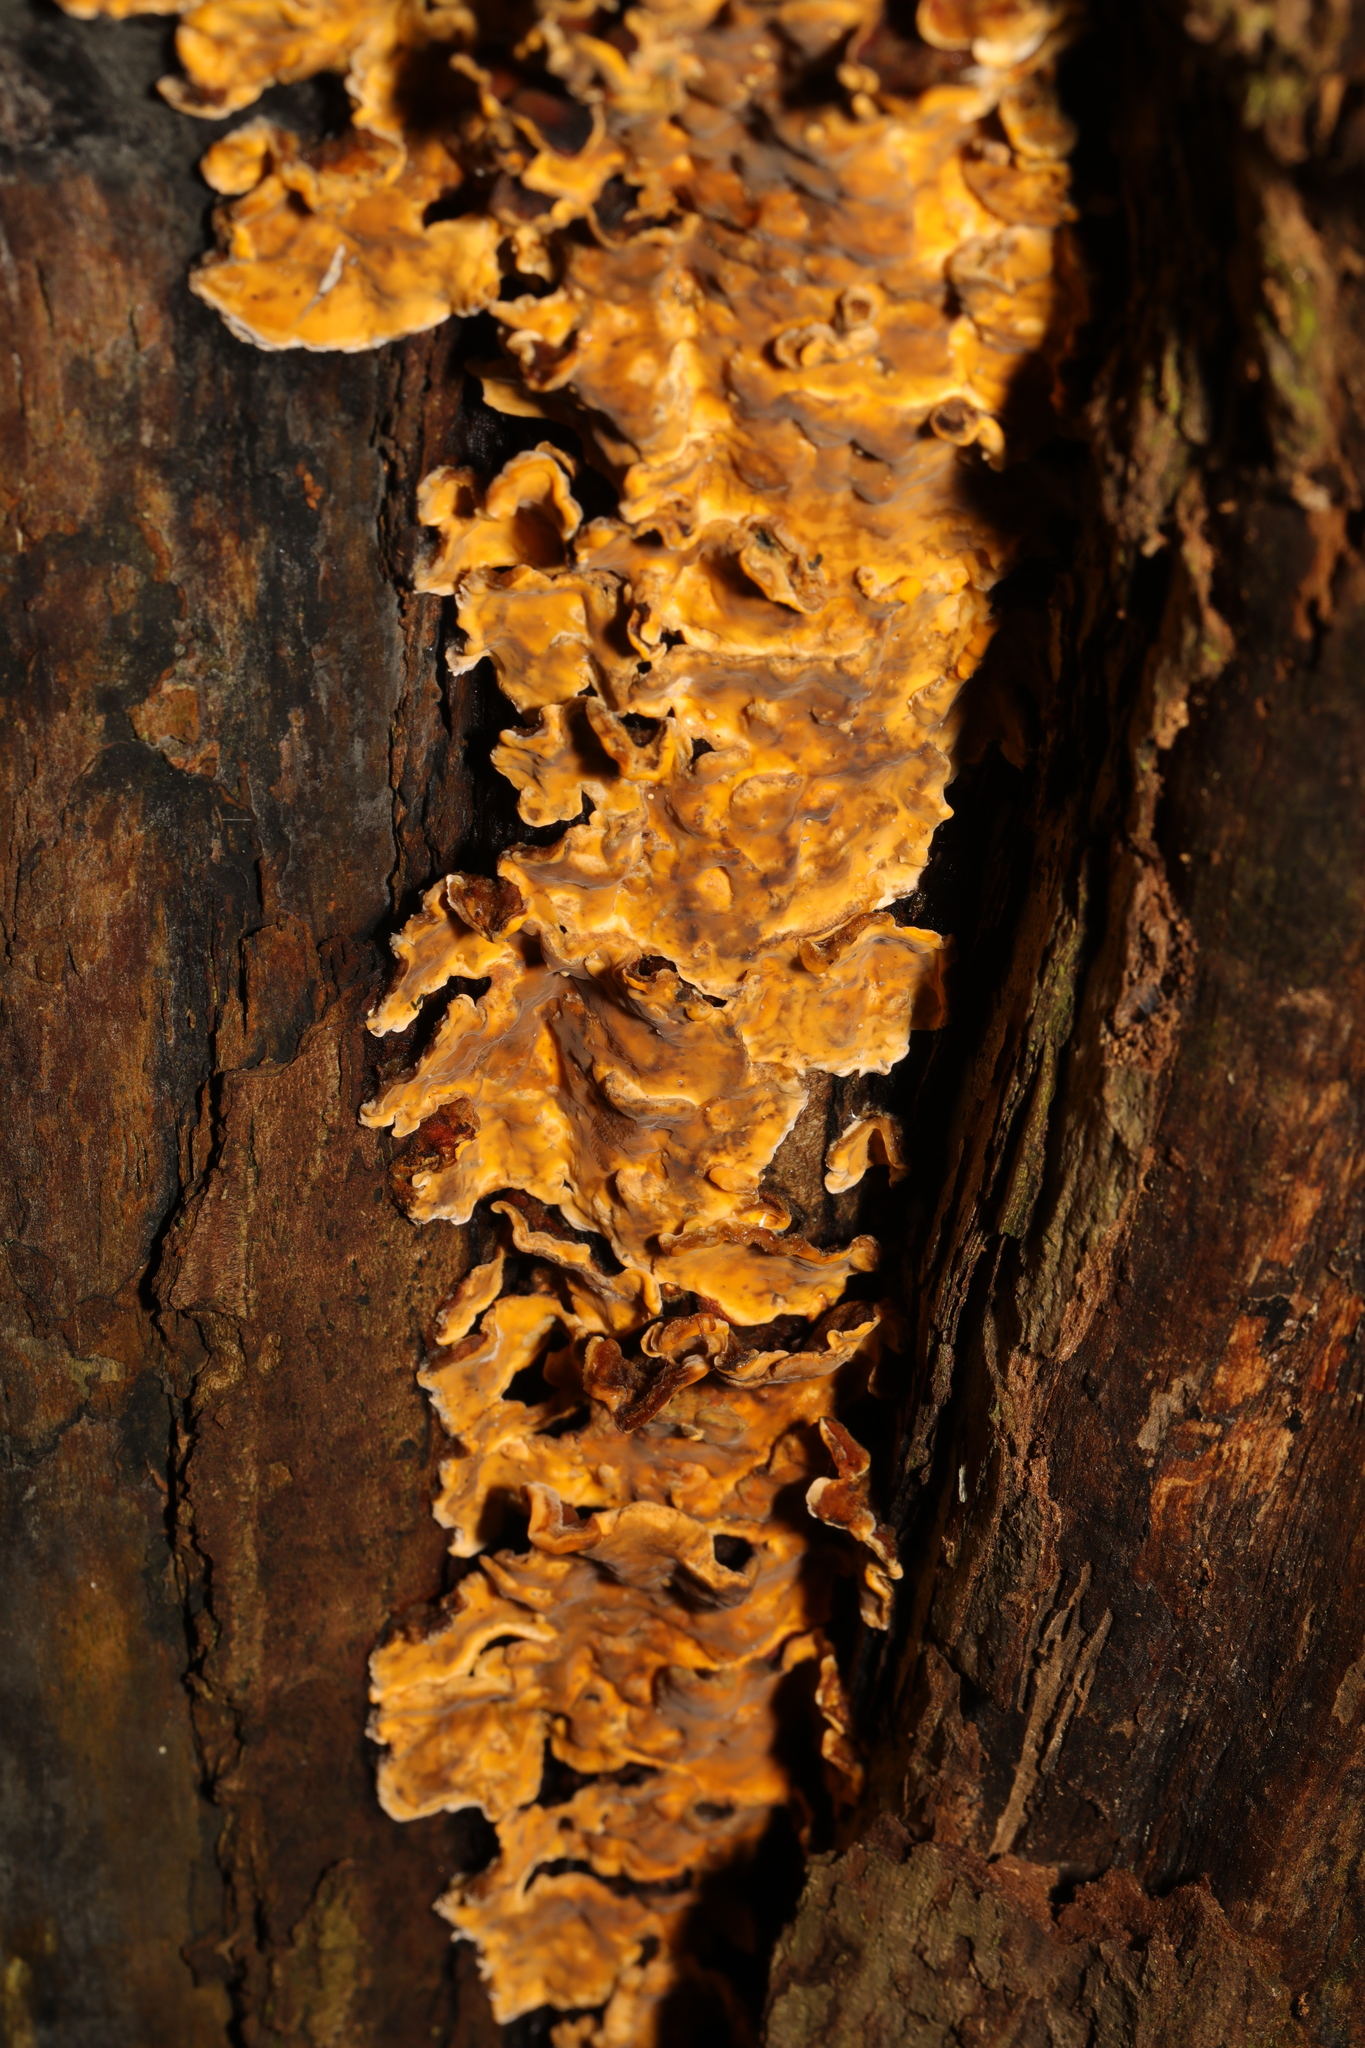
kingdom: Fungi
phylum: Basidiomycota
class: Agaricomycetes
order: Russulales
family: Stereaceae
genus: Stereum
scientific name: Stereum hirsutum
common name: Hairy curtain crust
